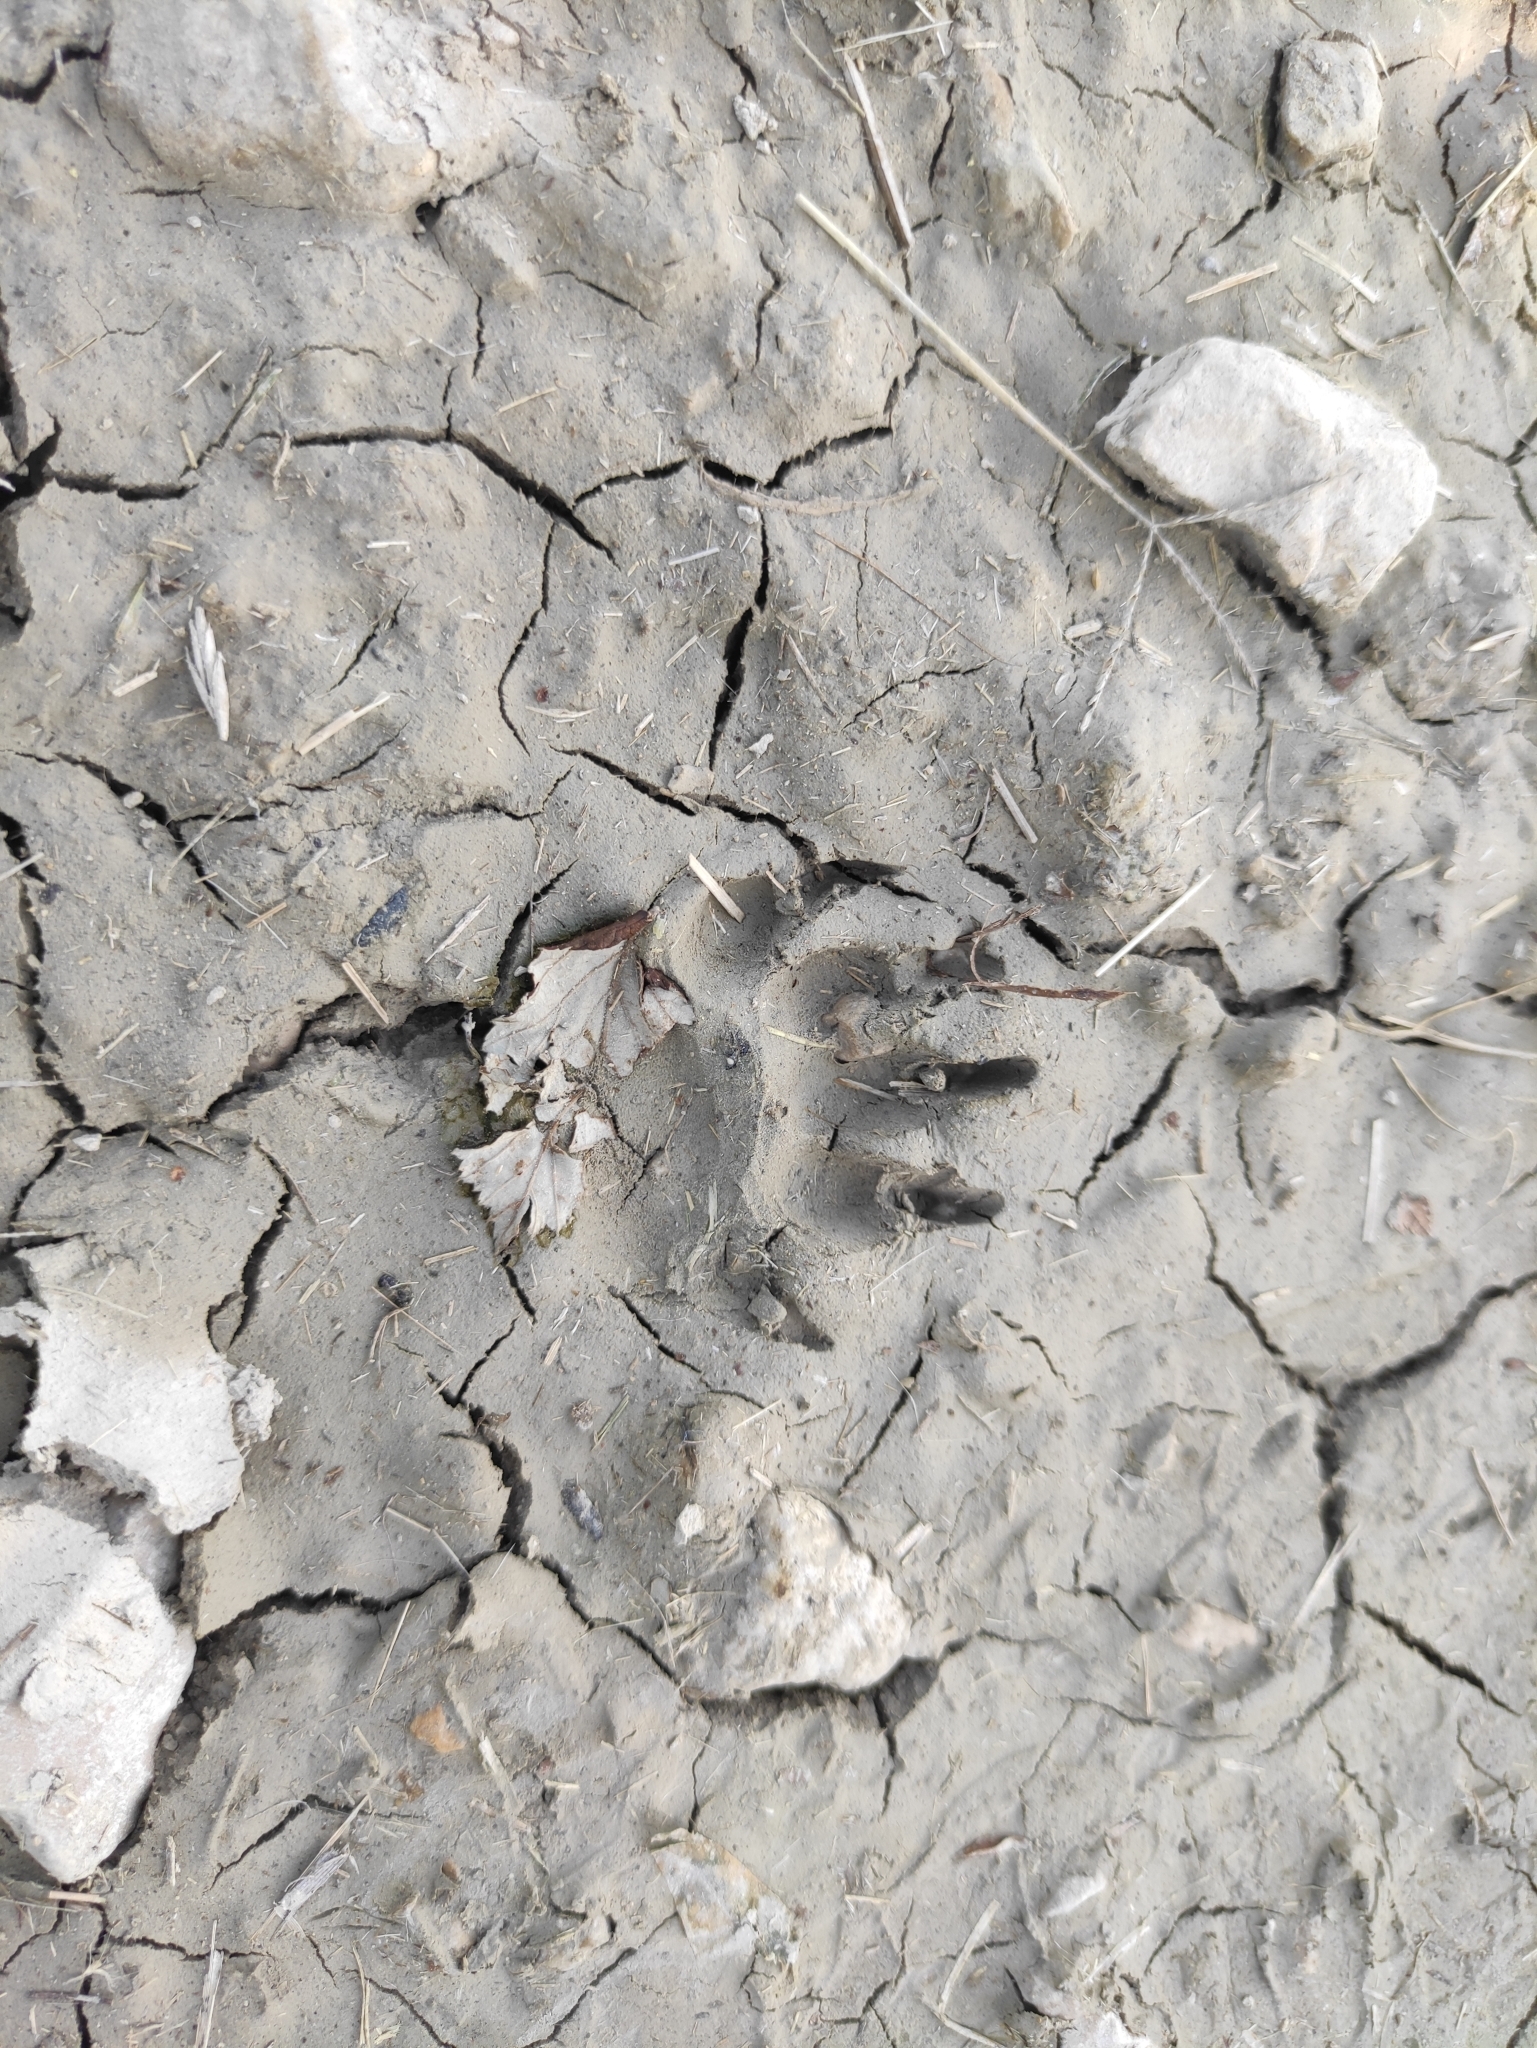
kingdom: Animalia
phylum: Chordata
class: Mammalia
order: Carnivora
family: Mustelidae
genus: Meles
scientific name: Meles meles
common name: Eurasian badger
